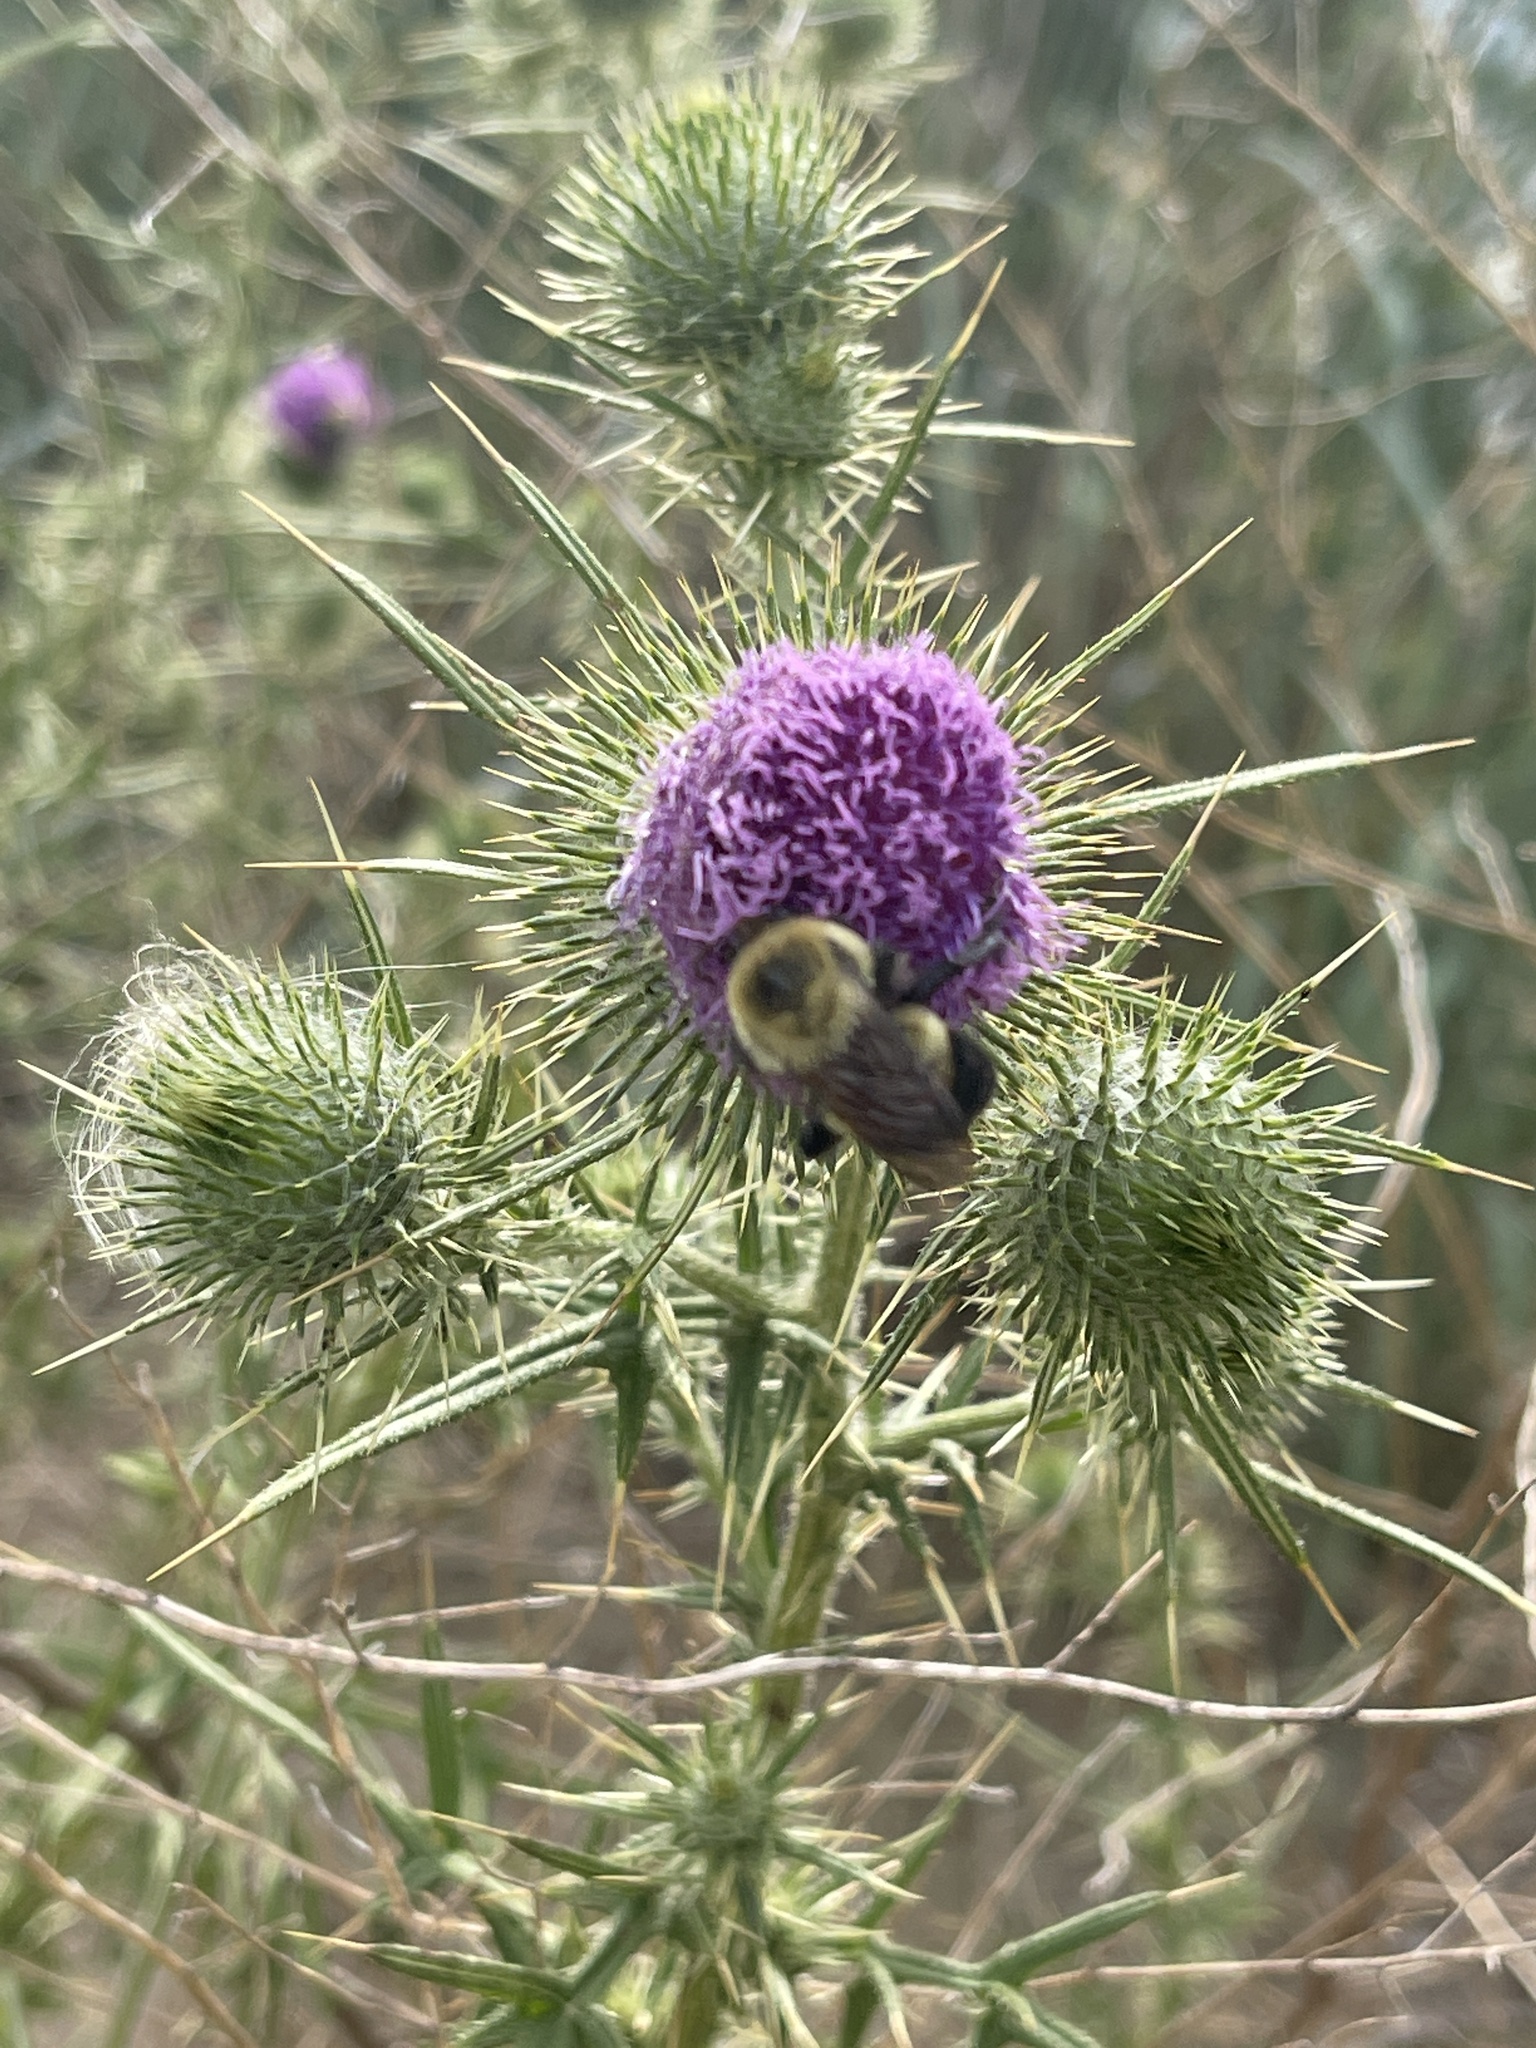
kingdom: Animalia
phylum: Arthropoda
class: Insecta
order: Hymenoptera
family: Apidae
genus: Bombus
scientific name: Bombus griseocollis
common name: Brown-belted bumble bee
